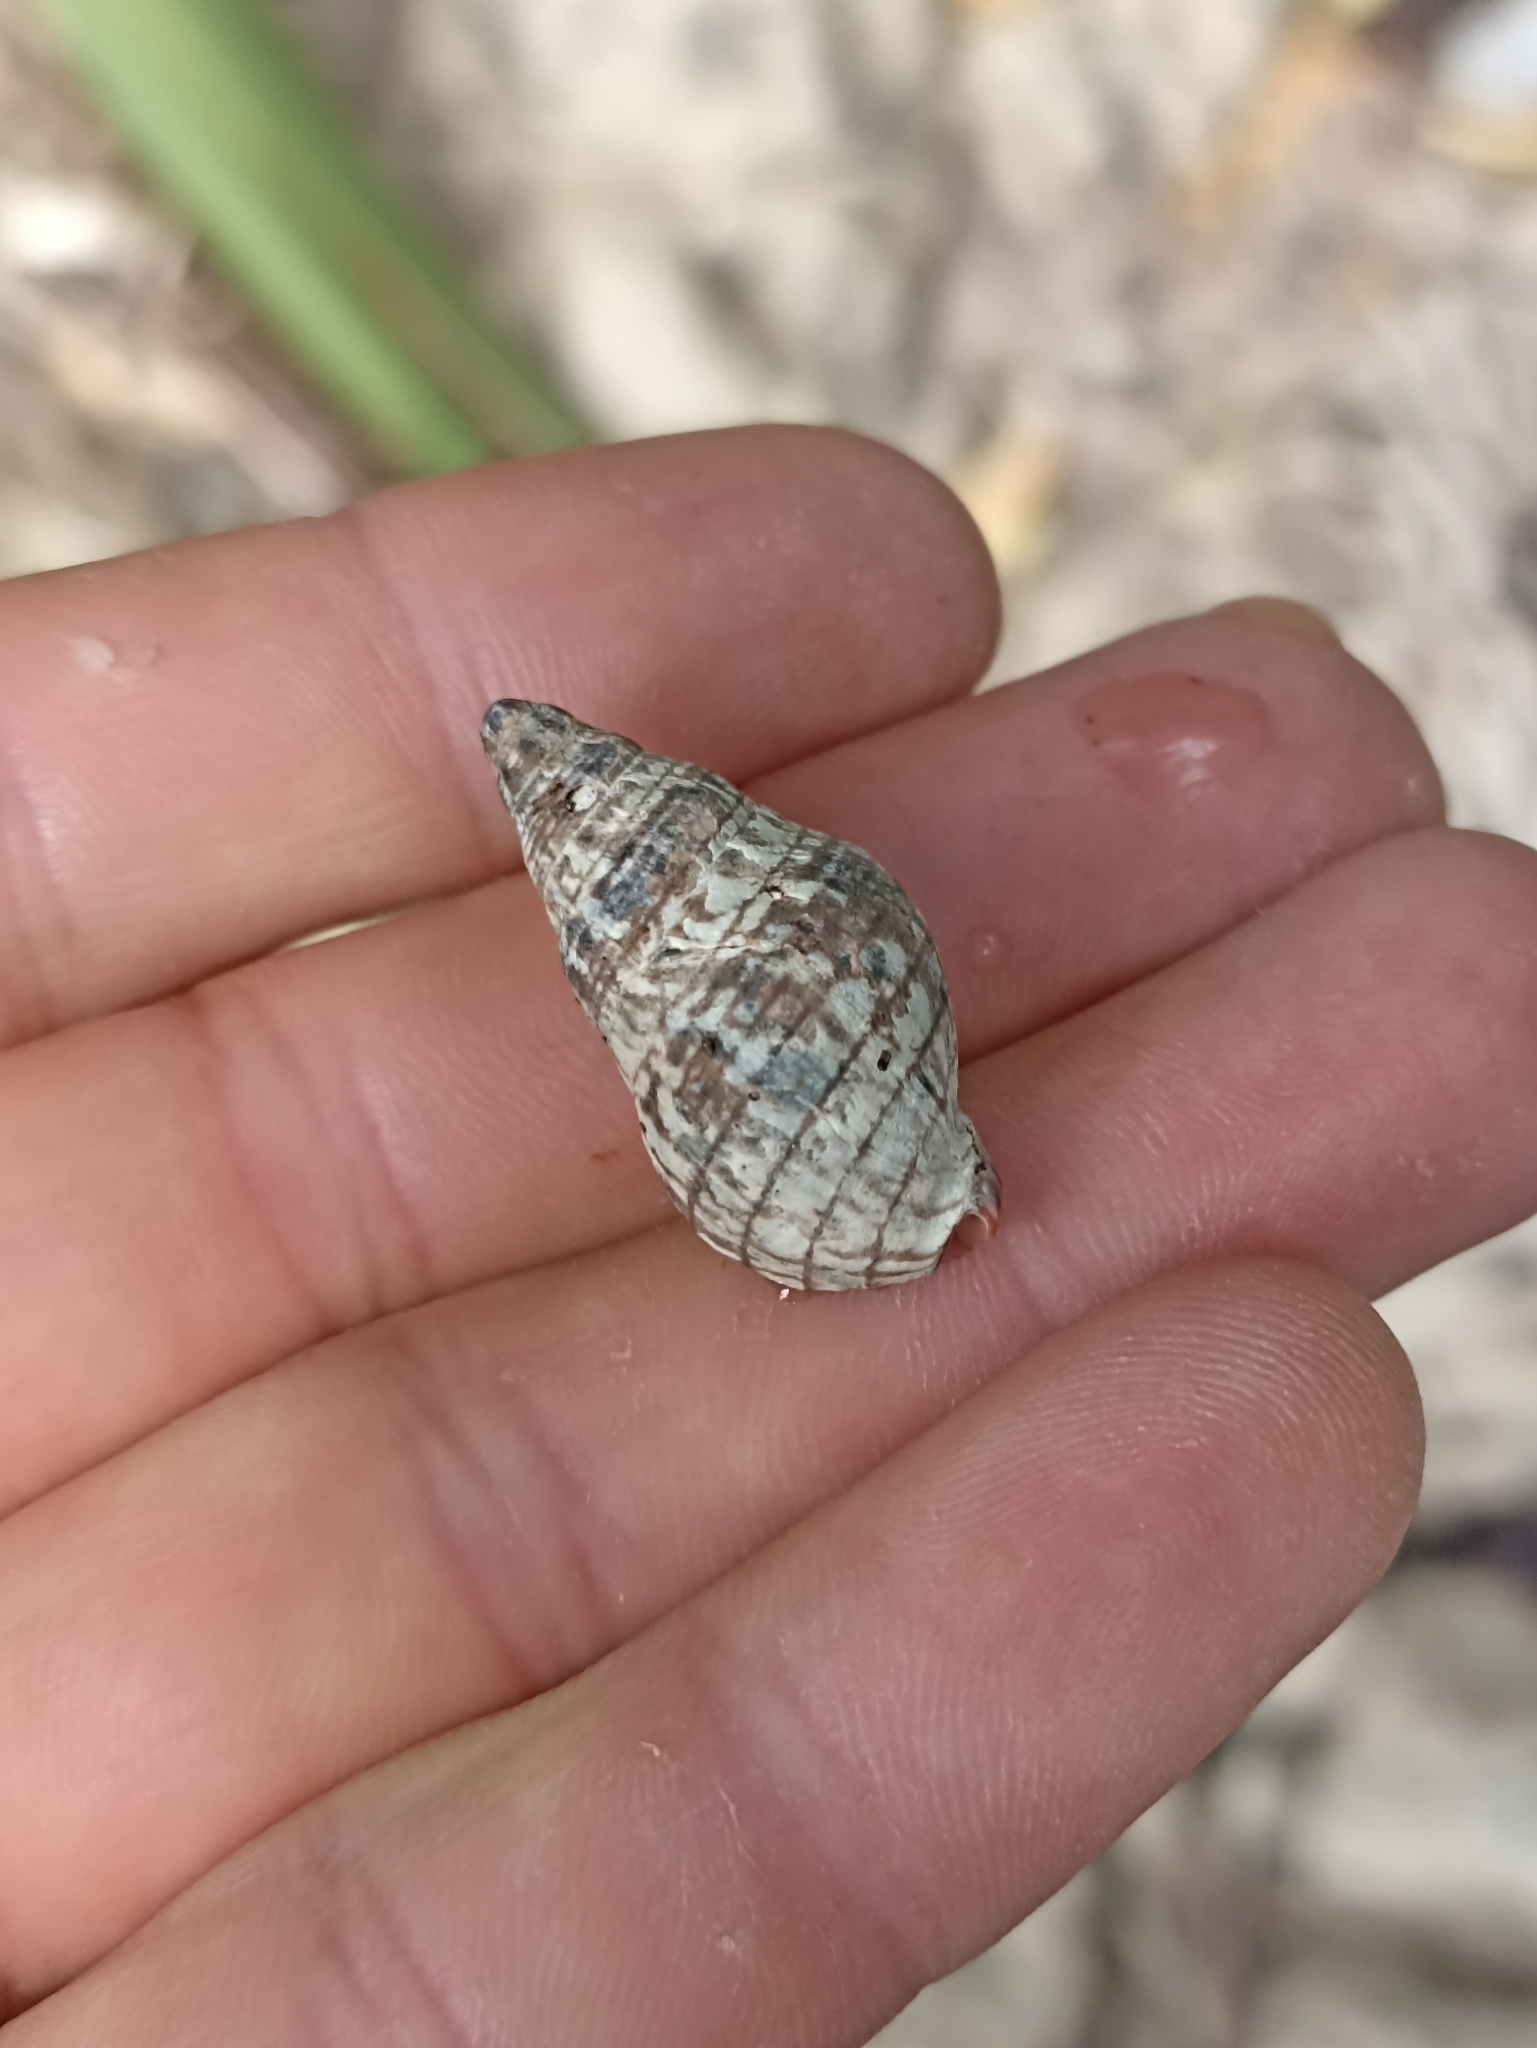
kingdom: Animalia
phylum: Mollusca
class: Gastropoda
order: Neogastropoda
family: Cominellidae
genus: Cominella
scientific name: Cominella virgata
